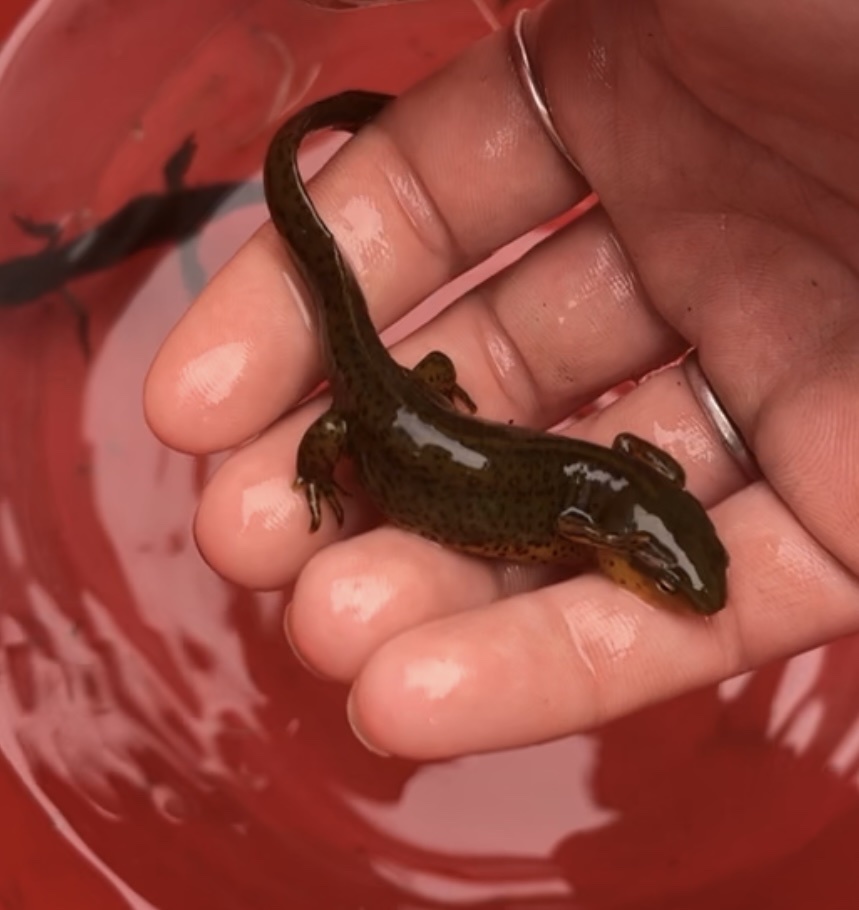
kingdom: Animalia
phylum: Chordata
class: Amphibia
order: Caudata
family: Salamandridae
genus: Notophthalmus
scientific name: Notophthalmus viridescens
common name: Eastern newt
